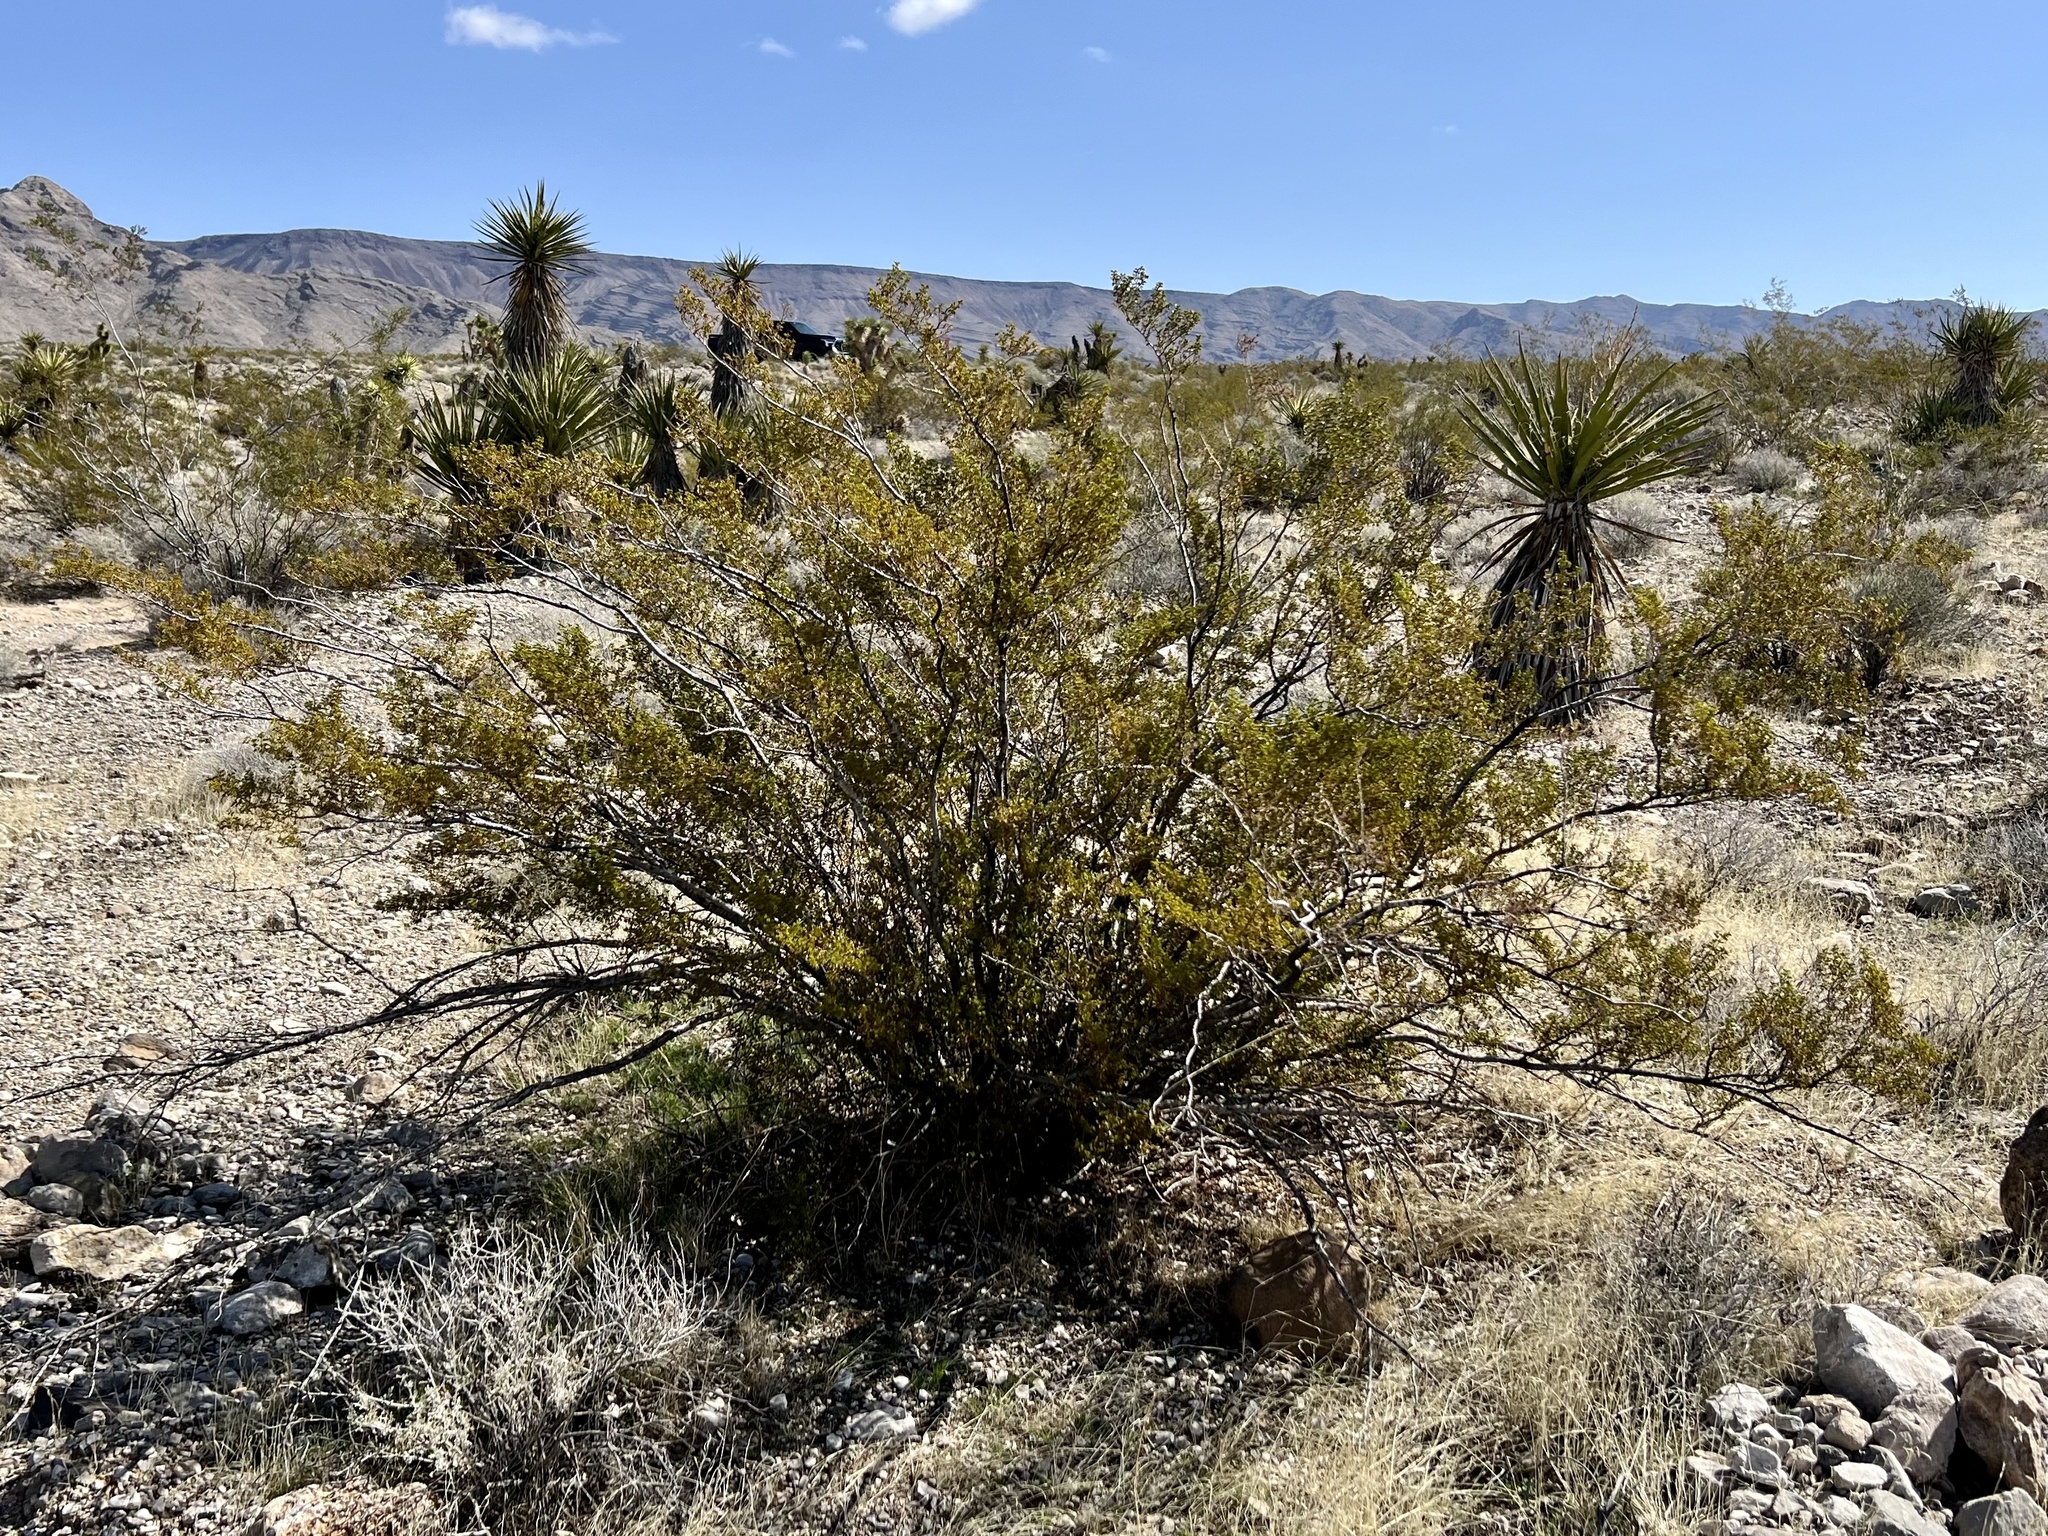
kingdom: Plantae
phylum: Tracheophyta
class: Magnoliopsida
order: Zygophyllales
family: Zygophyllaceae
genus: Larrea
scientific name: Larrea tridentata
